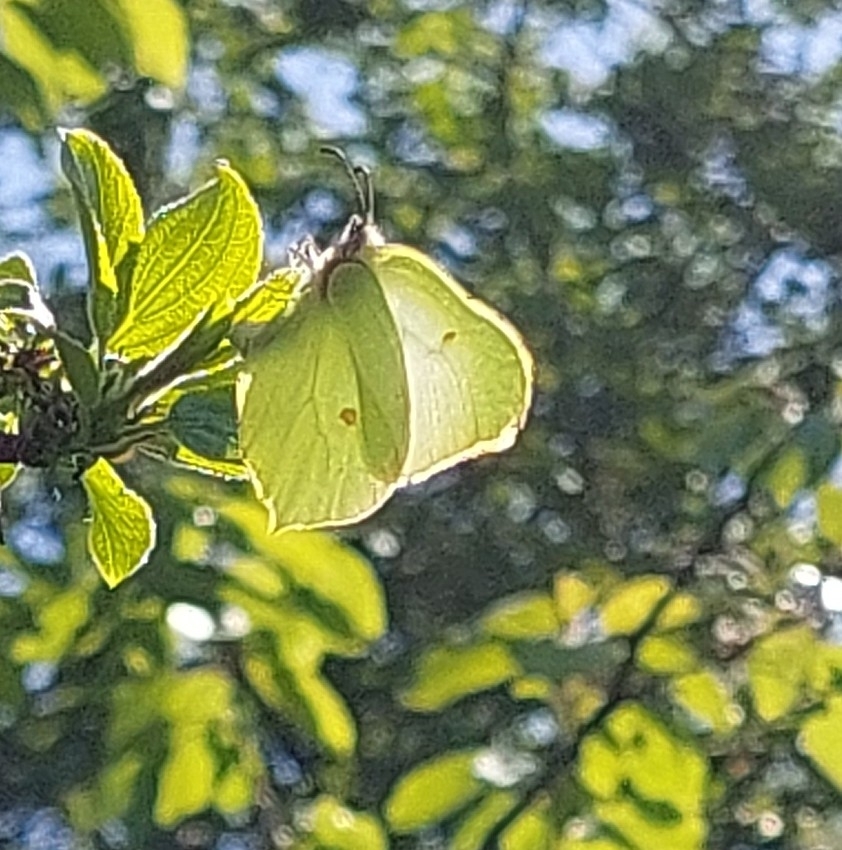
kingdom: Animalia
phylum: Arthropoda
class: Insecta
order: Lepidoptera
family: Pieridae
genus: Gonepteryx
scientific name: Gonepteryx rhamni
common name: Brimstone
